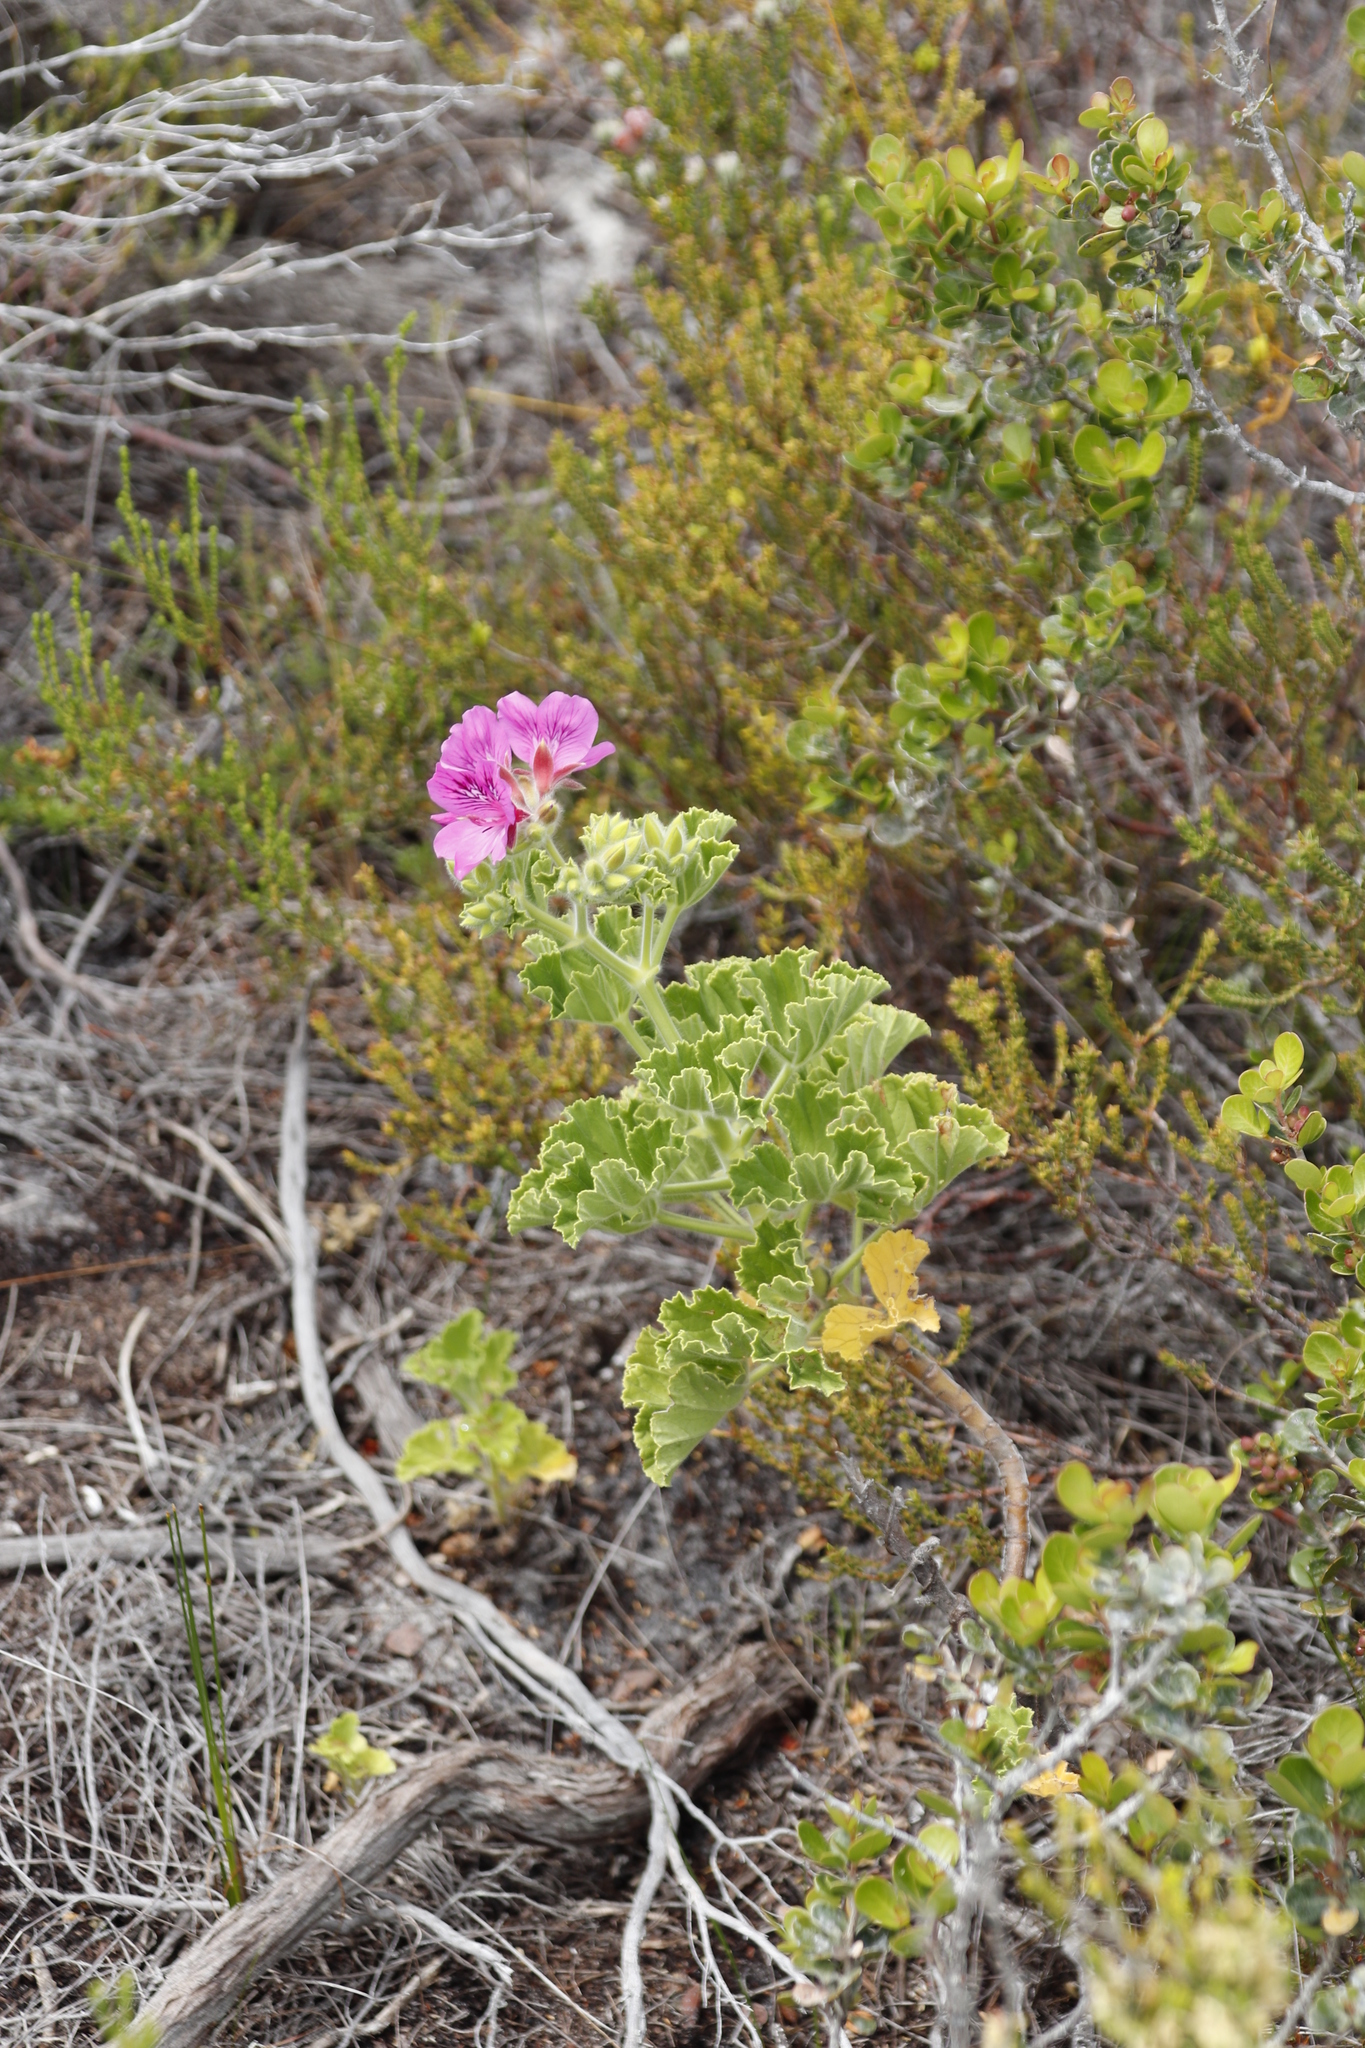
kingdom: Plantae
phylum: Tracheophyta
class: Magnoliopsida
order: Geraniales
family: Geraniaceae
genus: Pelargonium
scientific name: Pelargonium cucullatum
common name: Tree pelargonium
